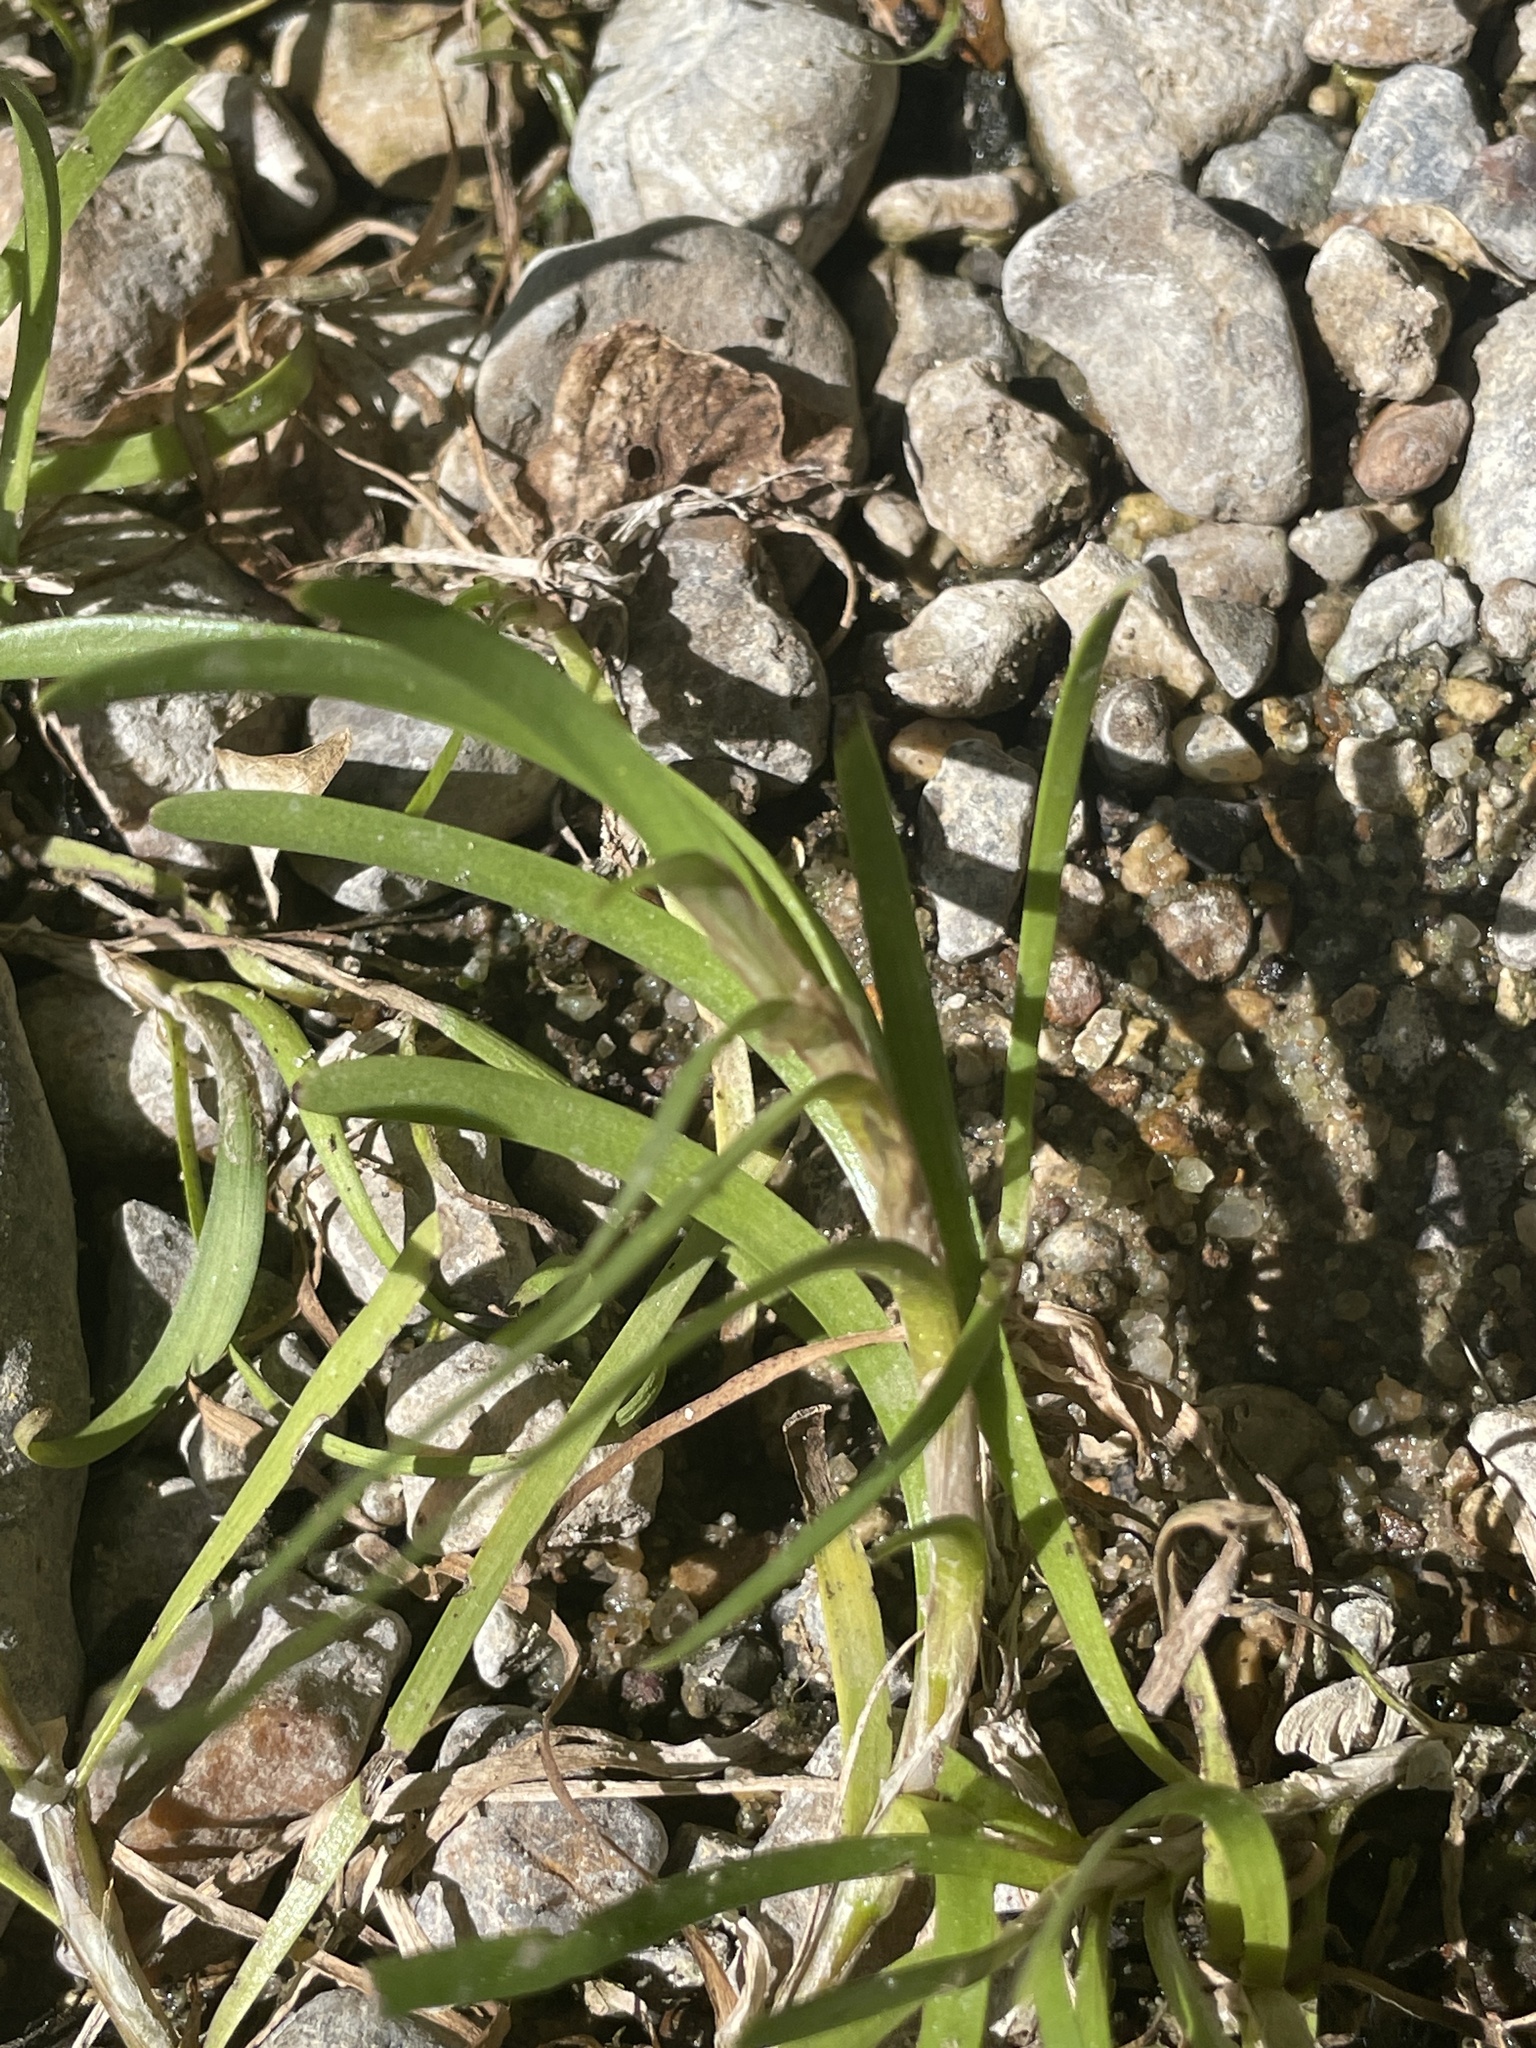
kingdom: Plantae
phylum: Tracheophyta
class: Liliopsida
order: Commelinales
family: Pontederiaceae
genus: Heteranthera
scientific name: Heteranthera dubia
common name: Grass-leaved mud plantain
